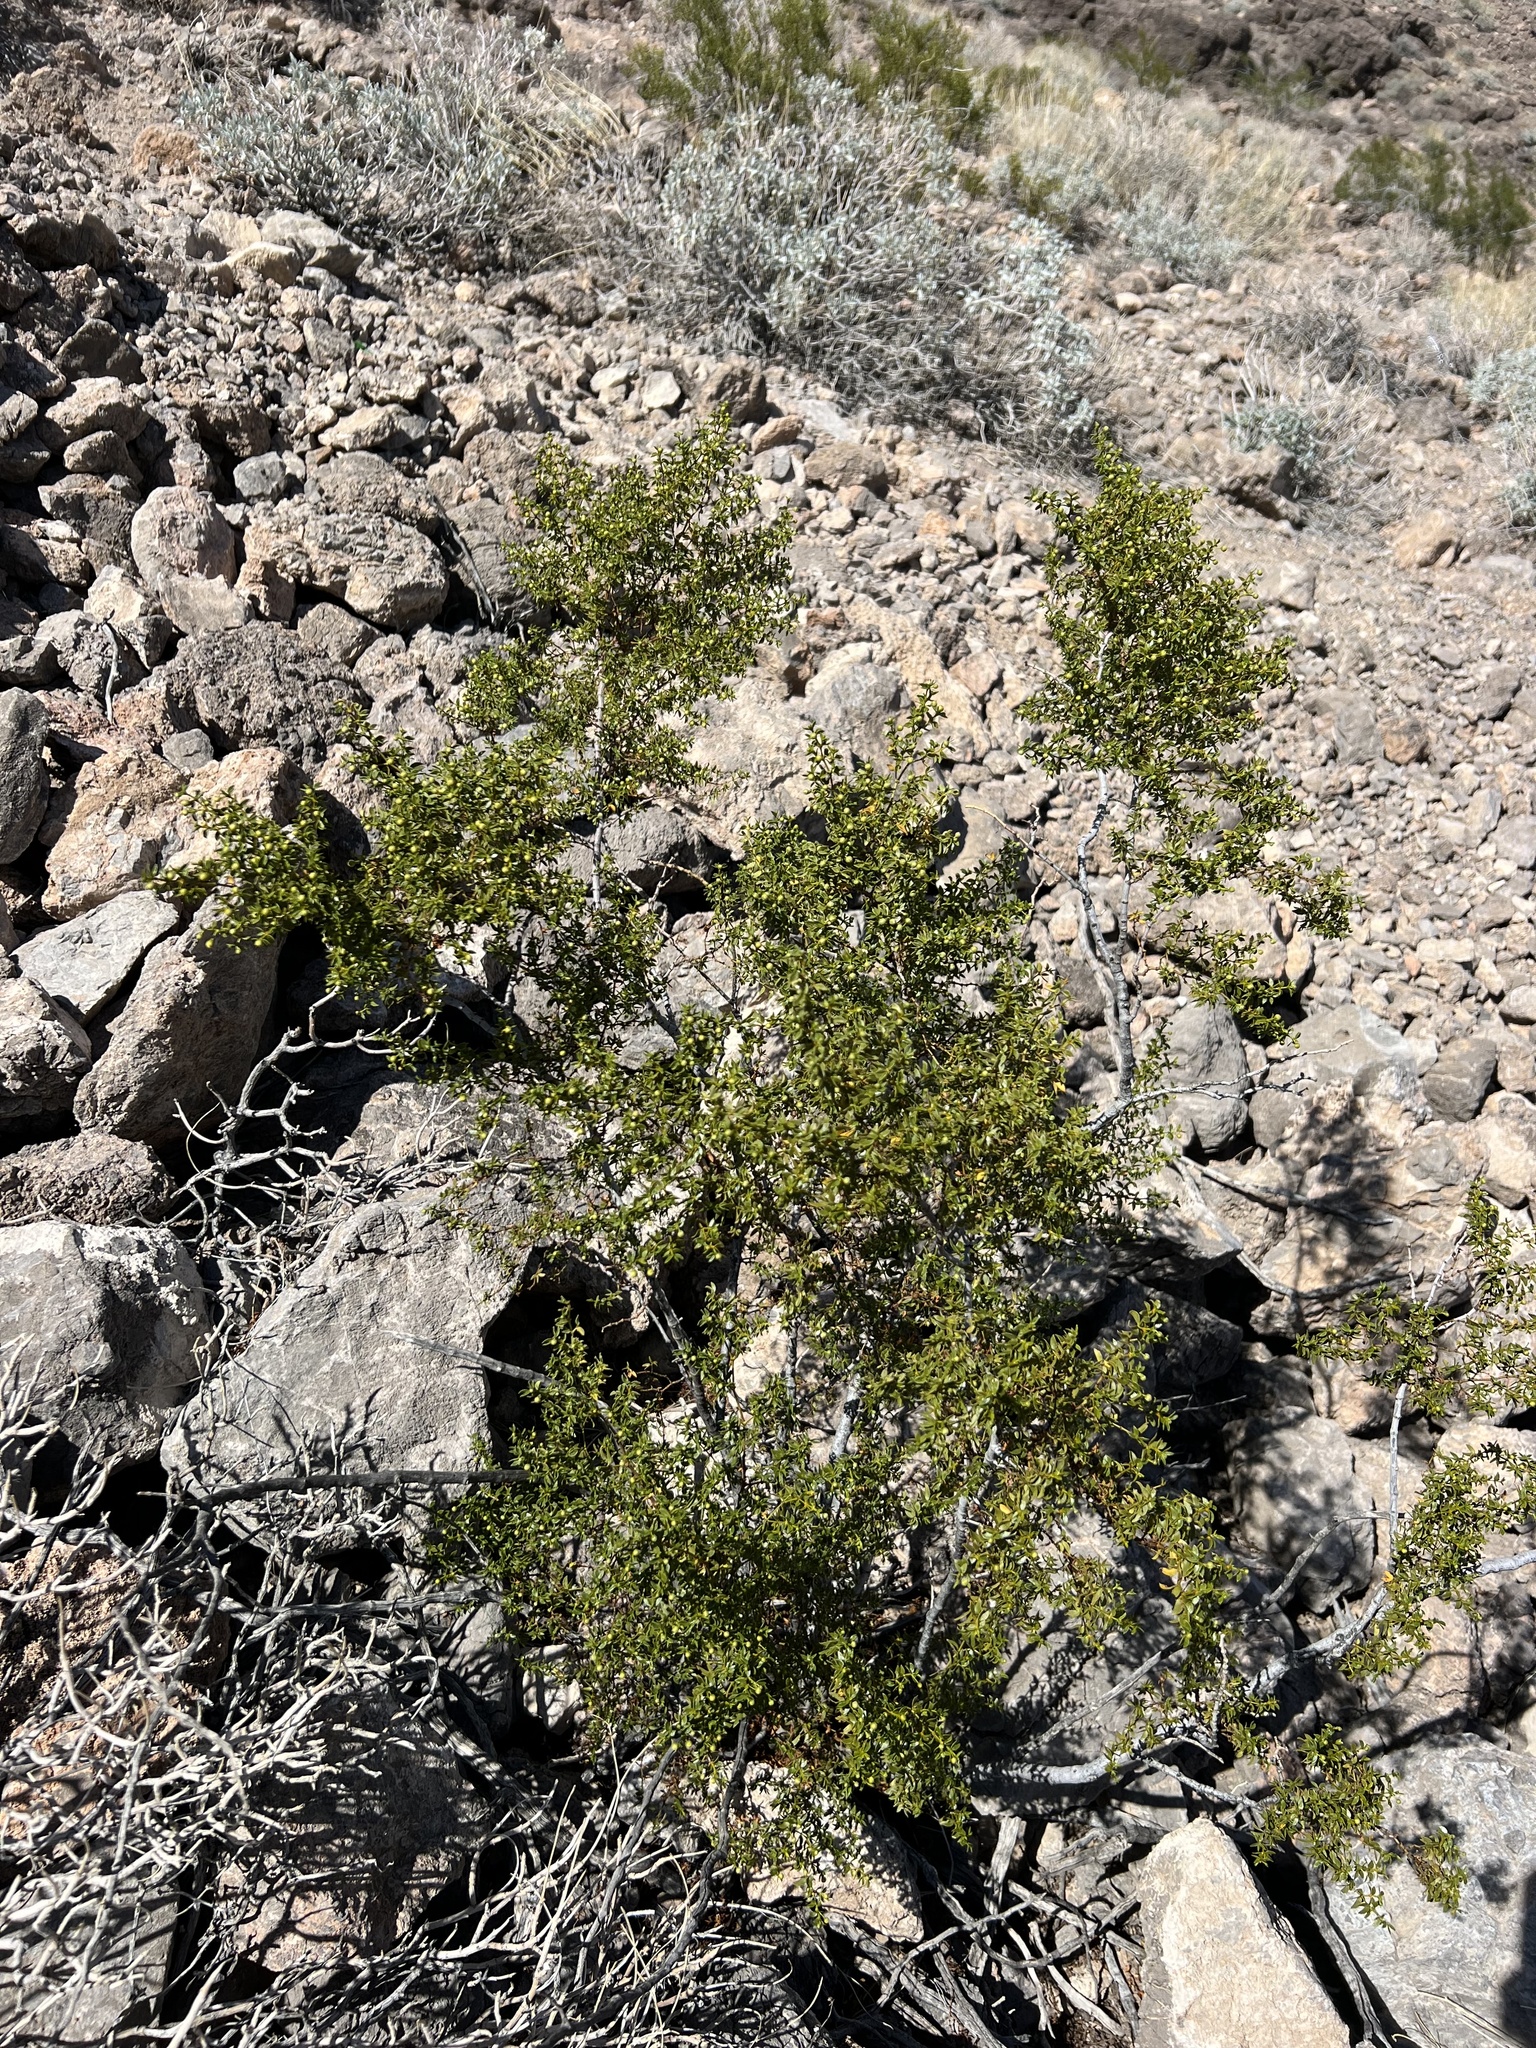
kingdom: Plantae
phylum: Tracheophyta
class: Magnoliopsida
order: Zygophyllales
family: Zygophyllaceae
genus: Larrea
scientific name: Larrea tridentata
